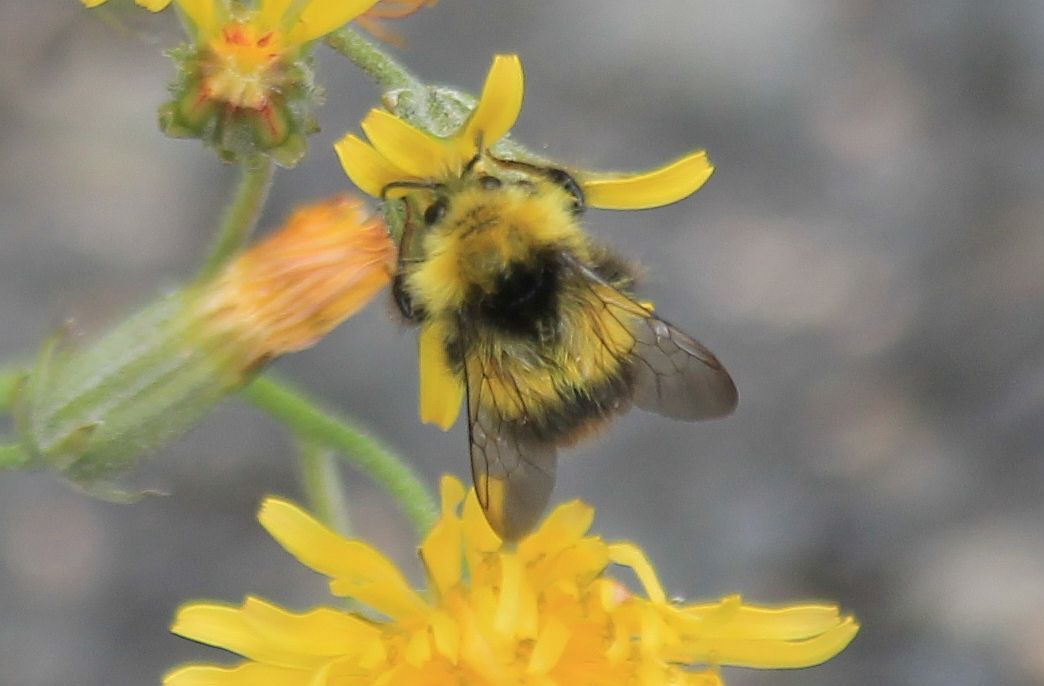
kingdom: Animalia
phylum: Arthropoda
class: Insecta
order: Hymenoptera
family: Apidae
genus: Bombus
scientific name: Bombus pratorum
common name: Early humble-bee
